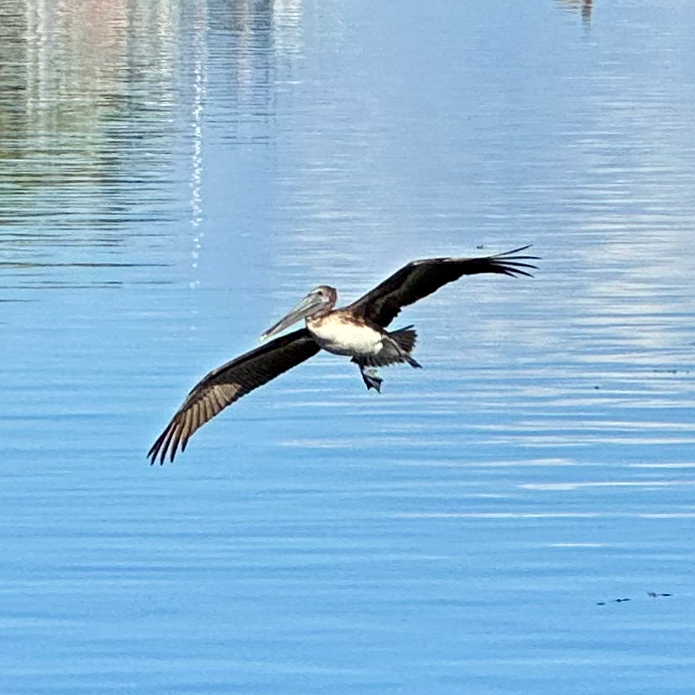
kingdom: Animalia
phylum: Chordata
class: Aves
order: Pelecaniformes
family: Pelecanidae
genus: Pelecanus
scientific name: Pelecanus occidentalis
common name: Brown pelican
